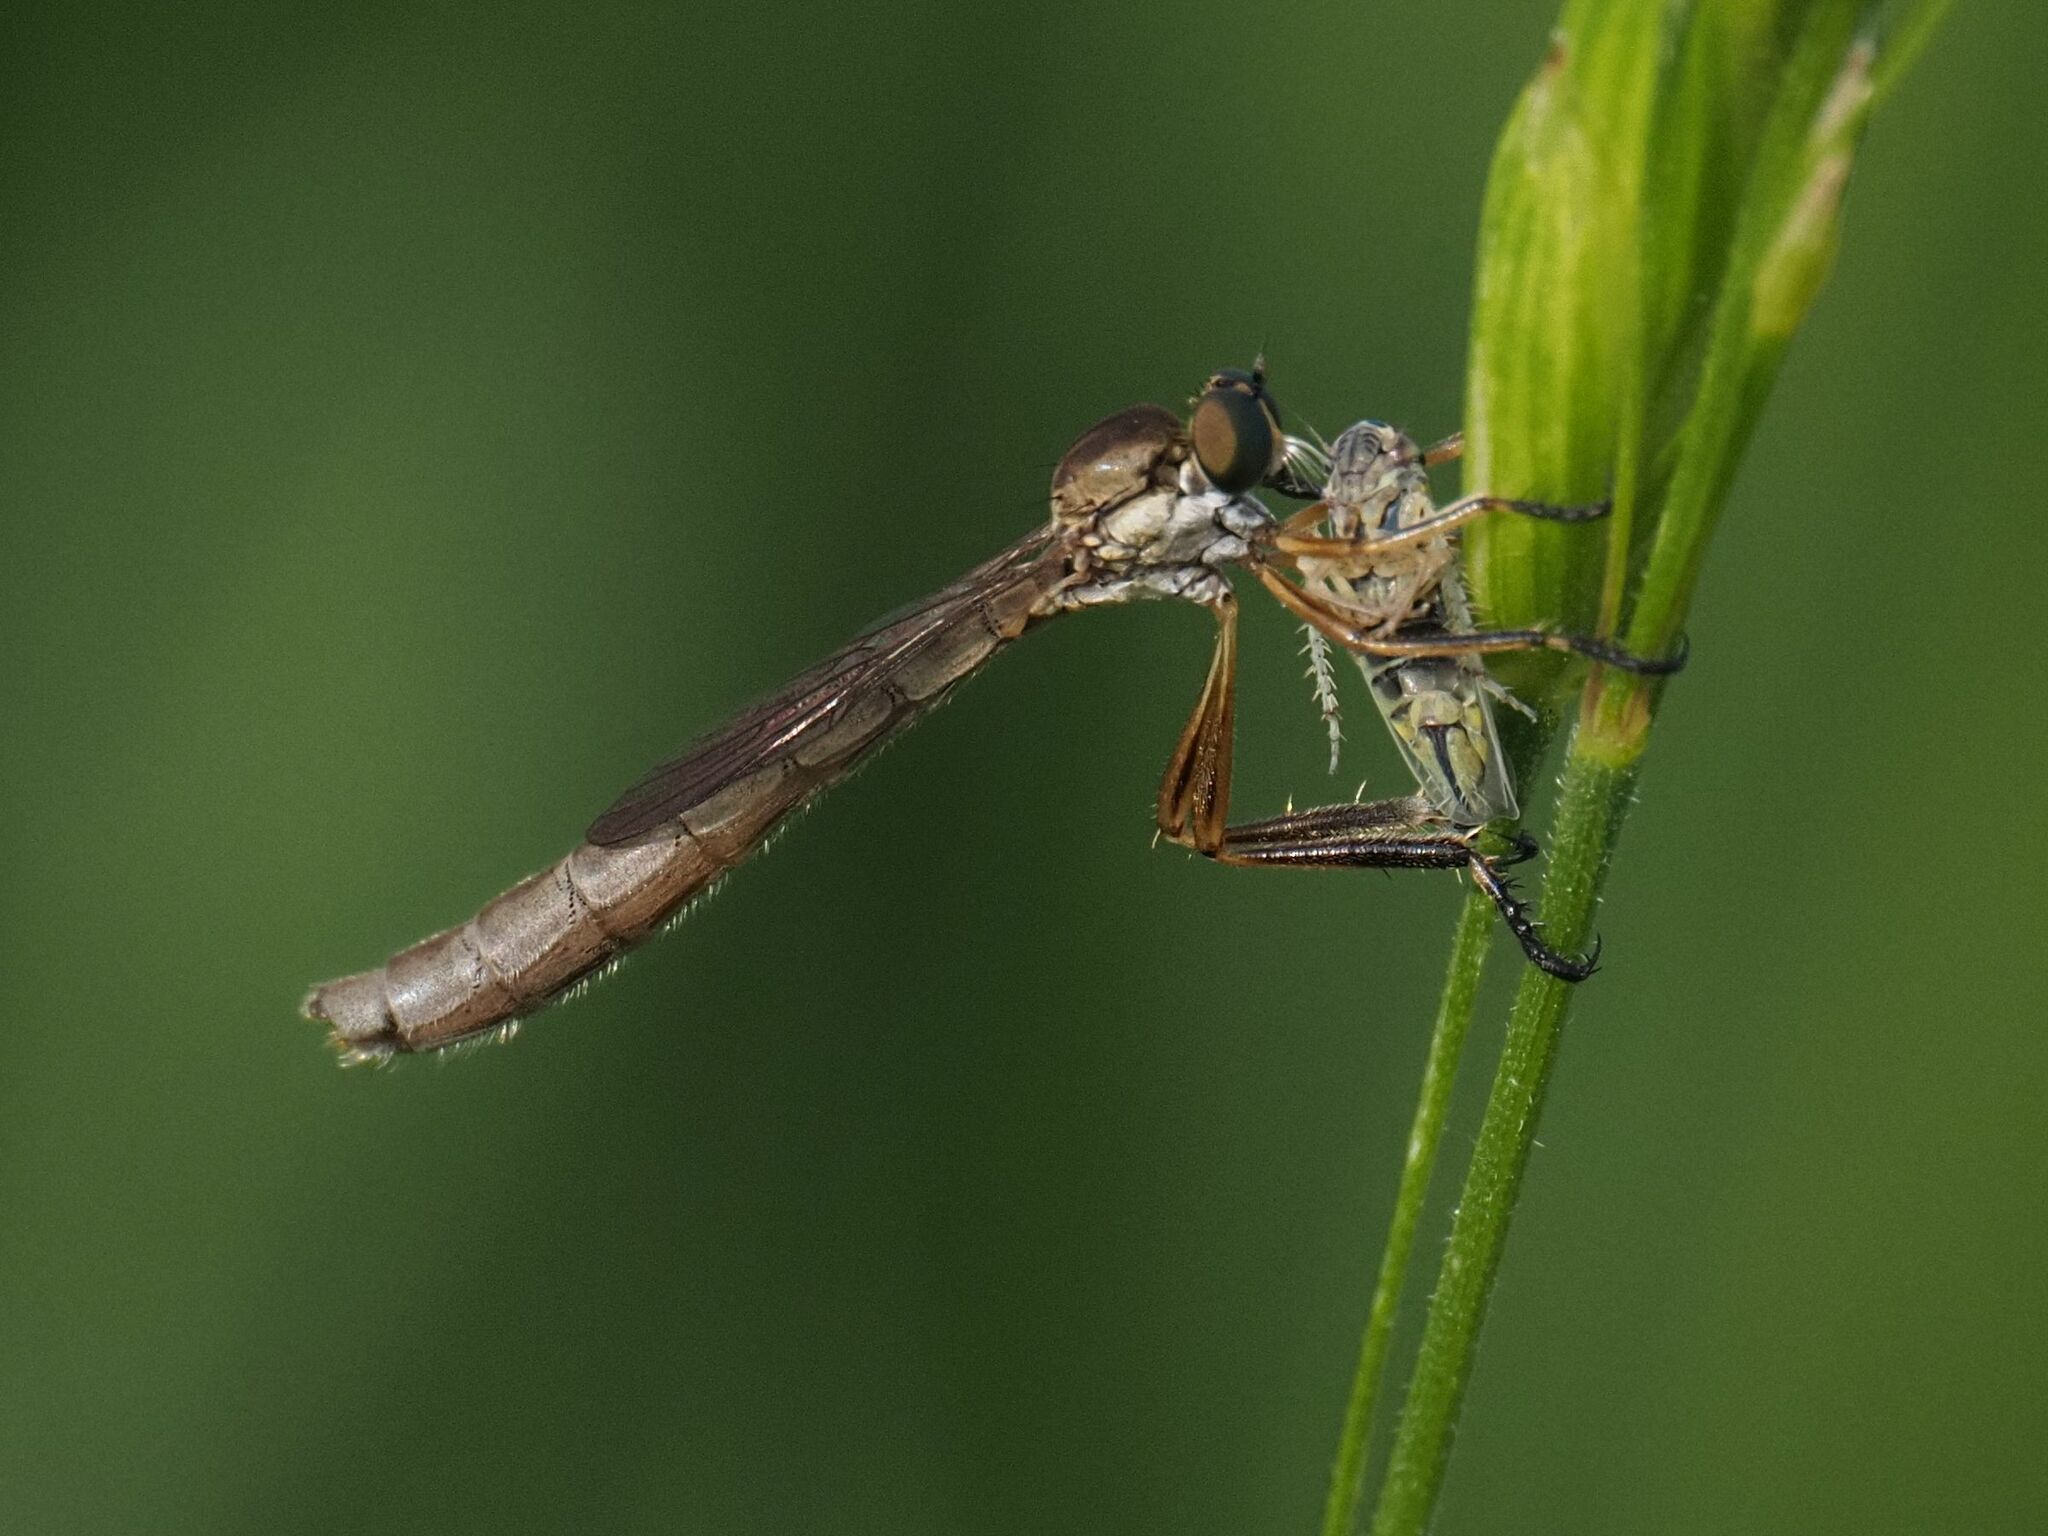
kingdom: Animalia
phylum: Arthropoda
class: Insecta
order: Diptera
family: Asilidae
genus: Leptogaster
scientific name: Leptogaster cylindrica
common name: Striped slender robberfly
